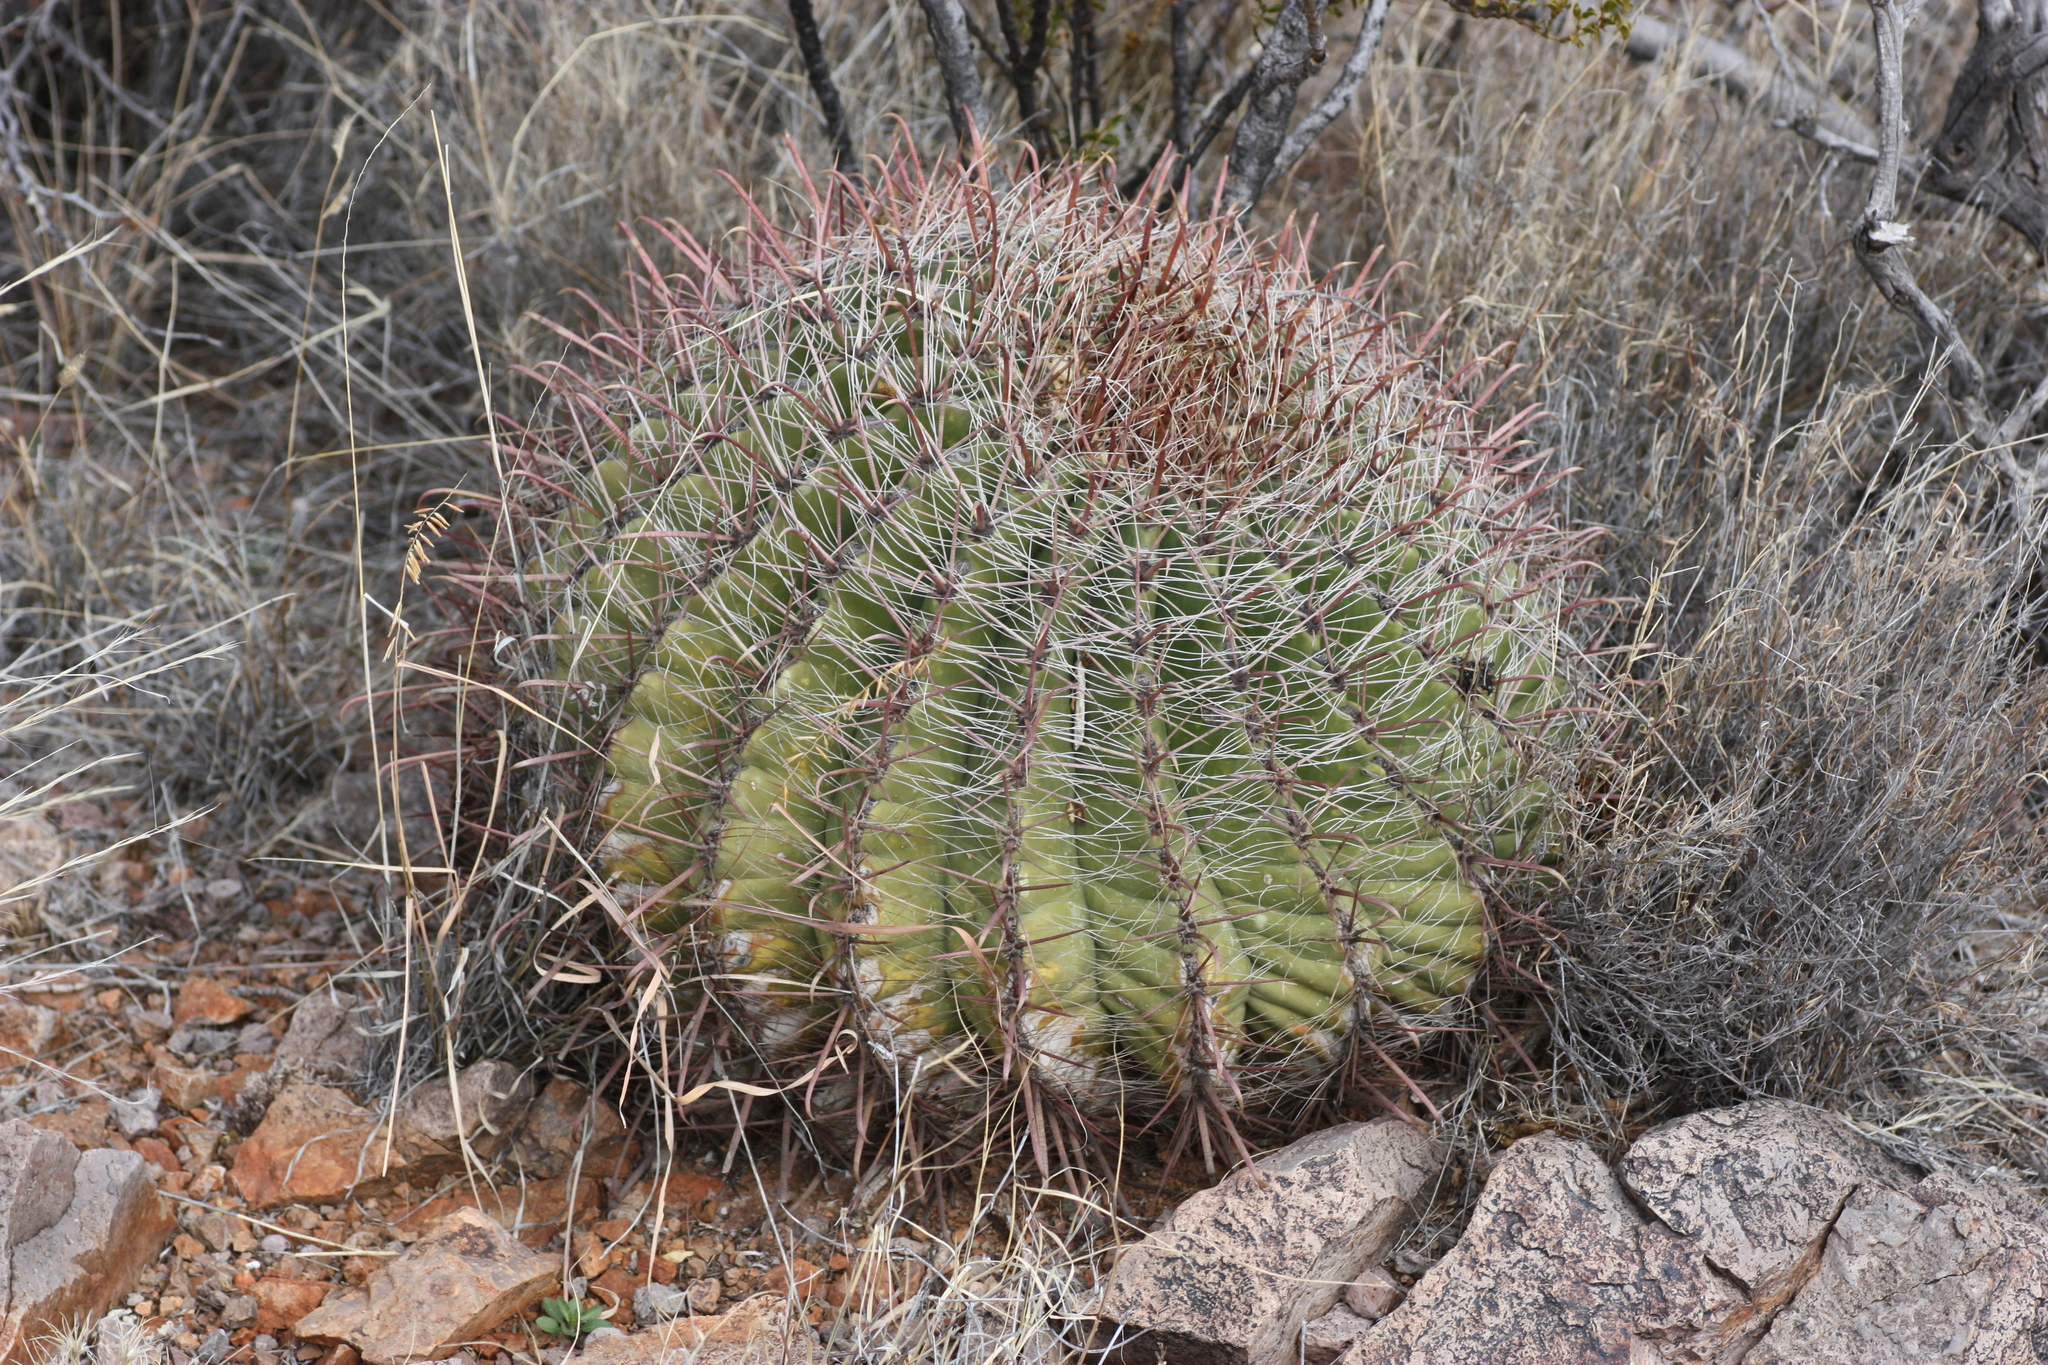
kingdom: Plantae
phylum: Tracheophyta
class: Magnoliopsida
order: Caryophyllales
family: Cactaceae
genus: Ferocactus
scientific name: Ferocactus wislizeni
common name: Candy barrel cactus
